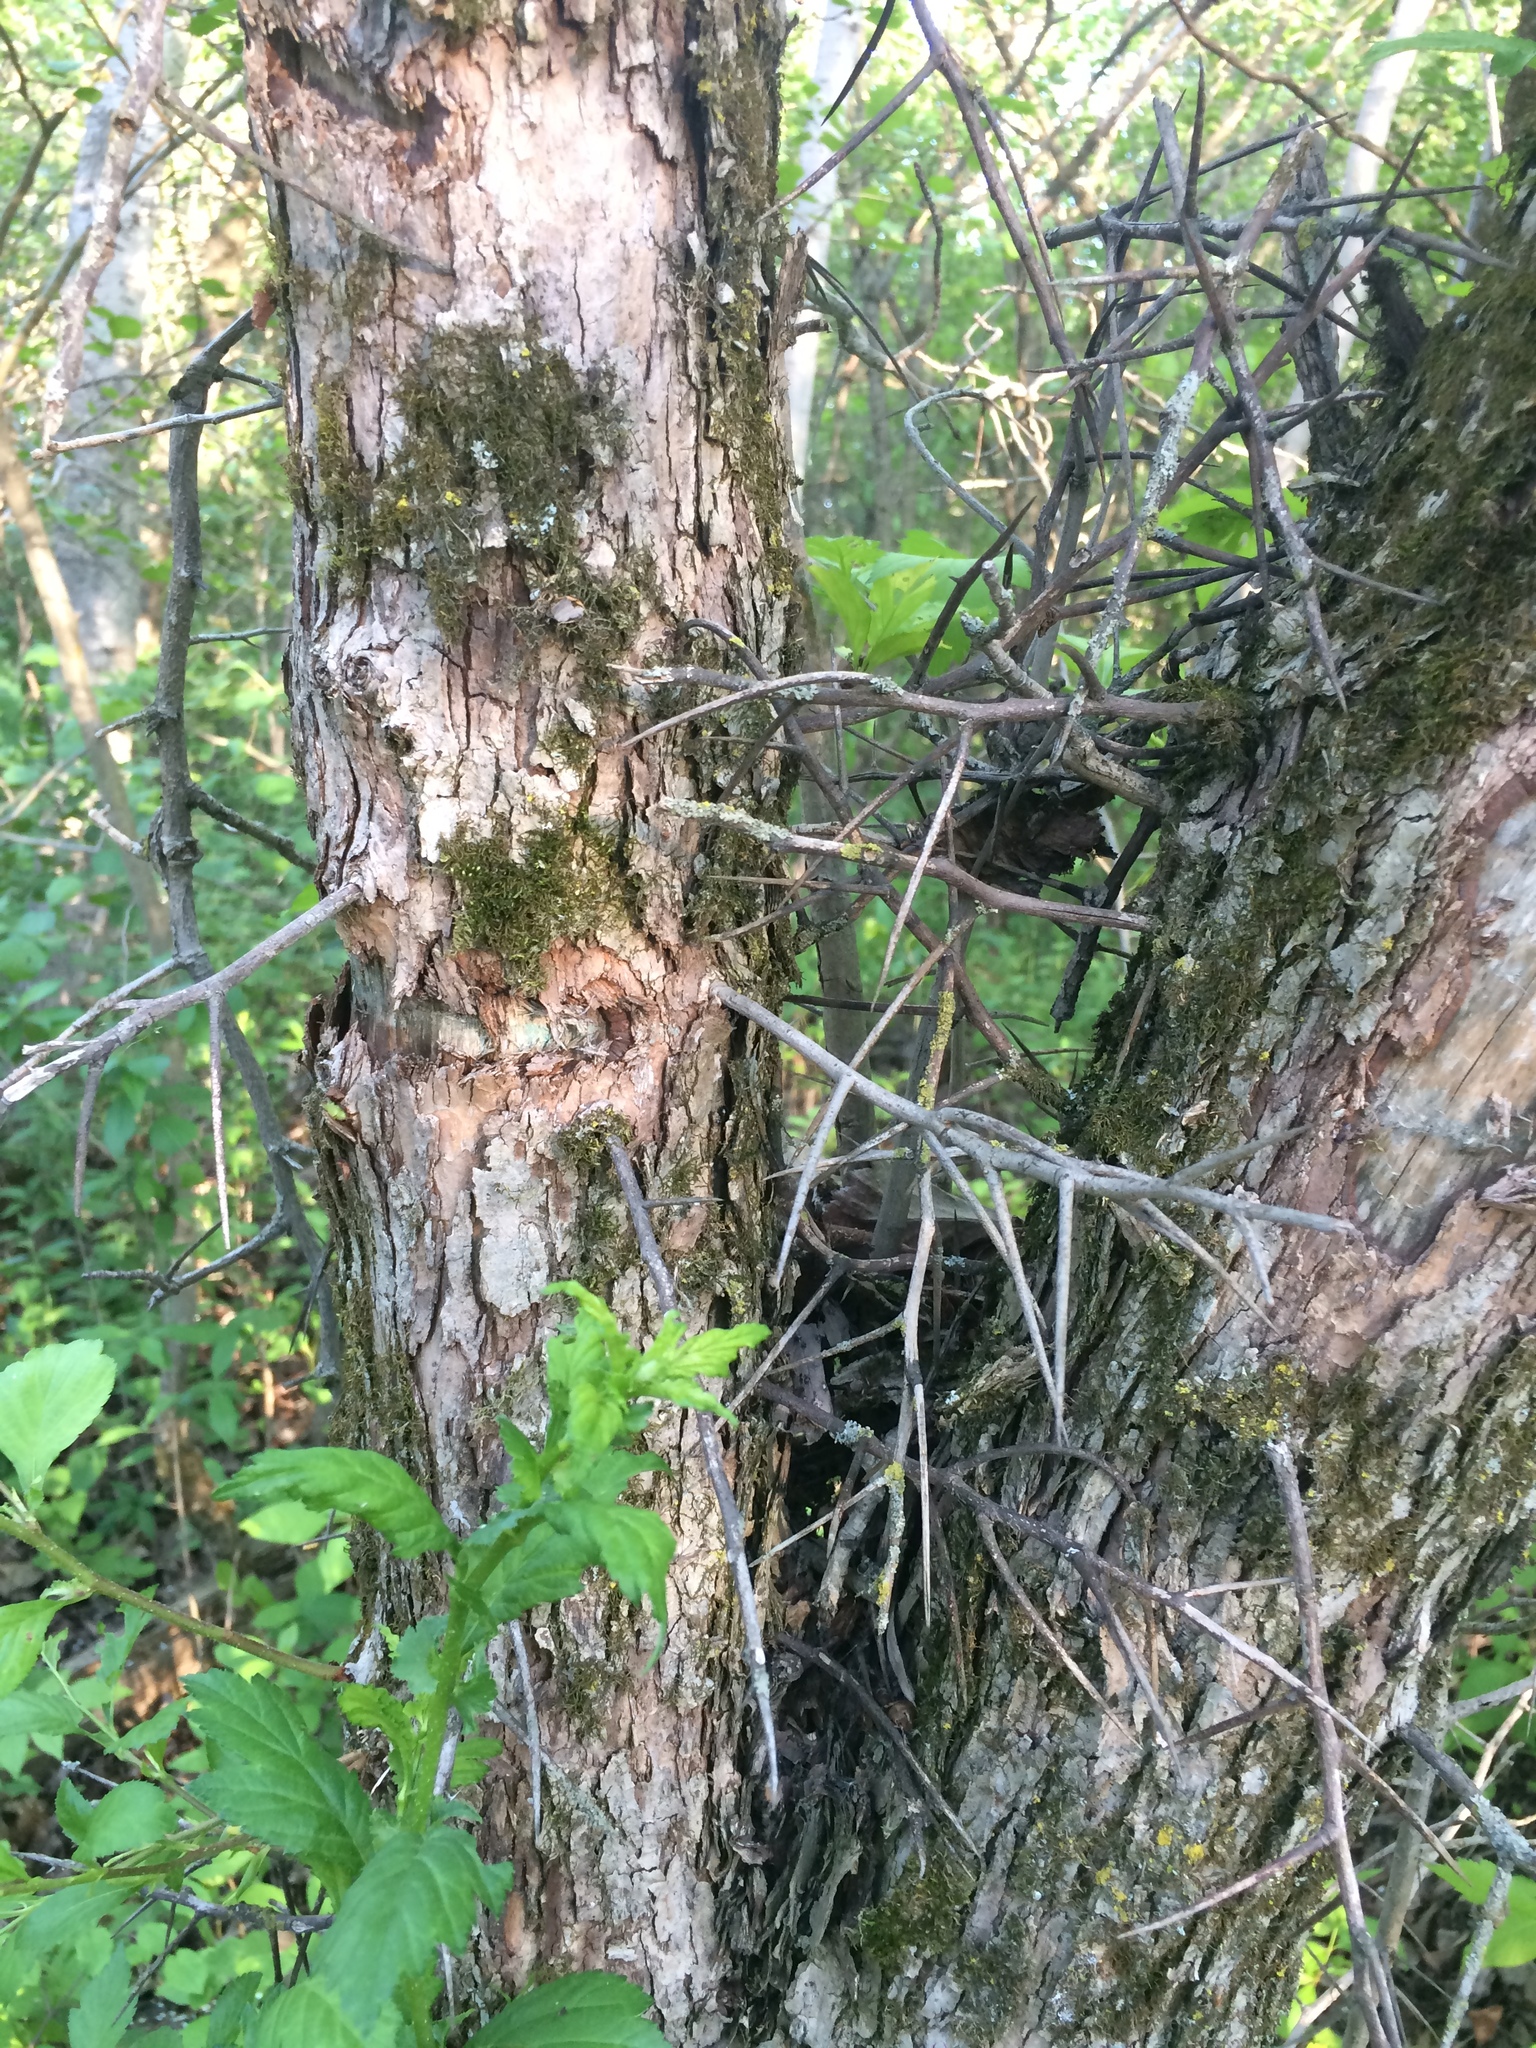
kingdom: Plantae
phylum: Tracheophyta
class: Magnoliopsida
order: Rosales
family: Rosaceae
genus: Crataegus
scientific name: Crataegus punctata
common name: Dotted hawthorn
